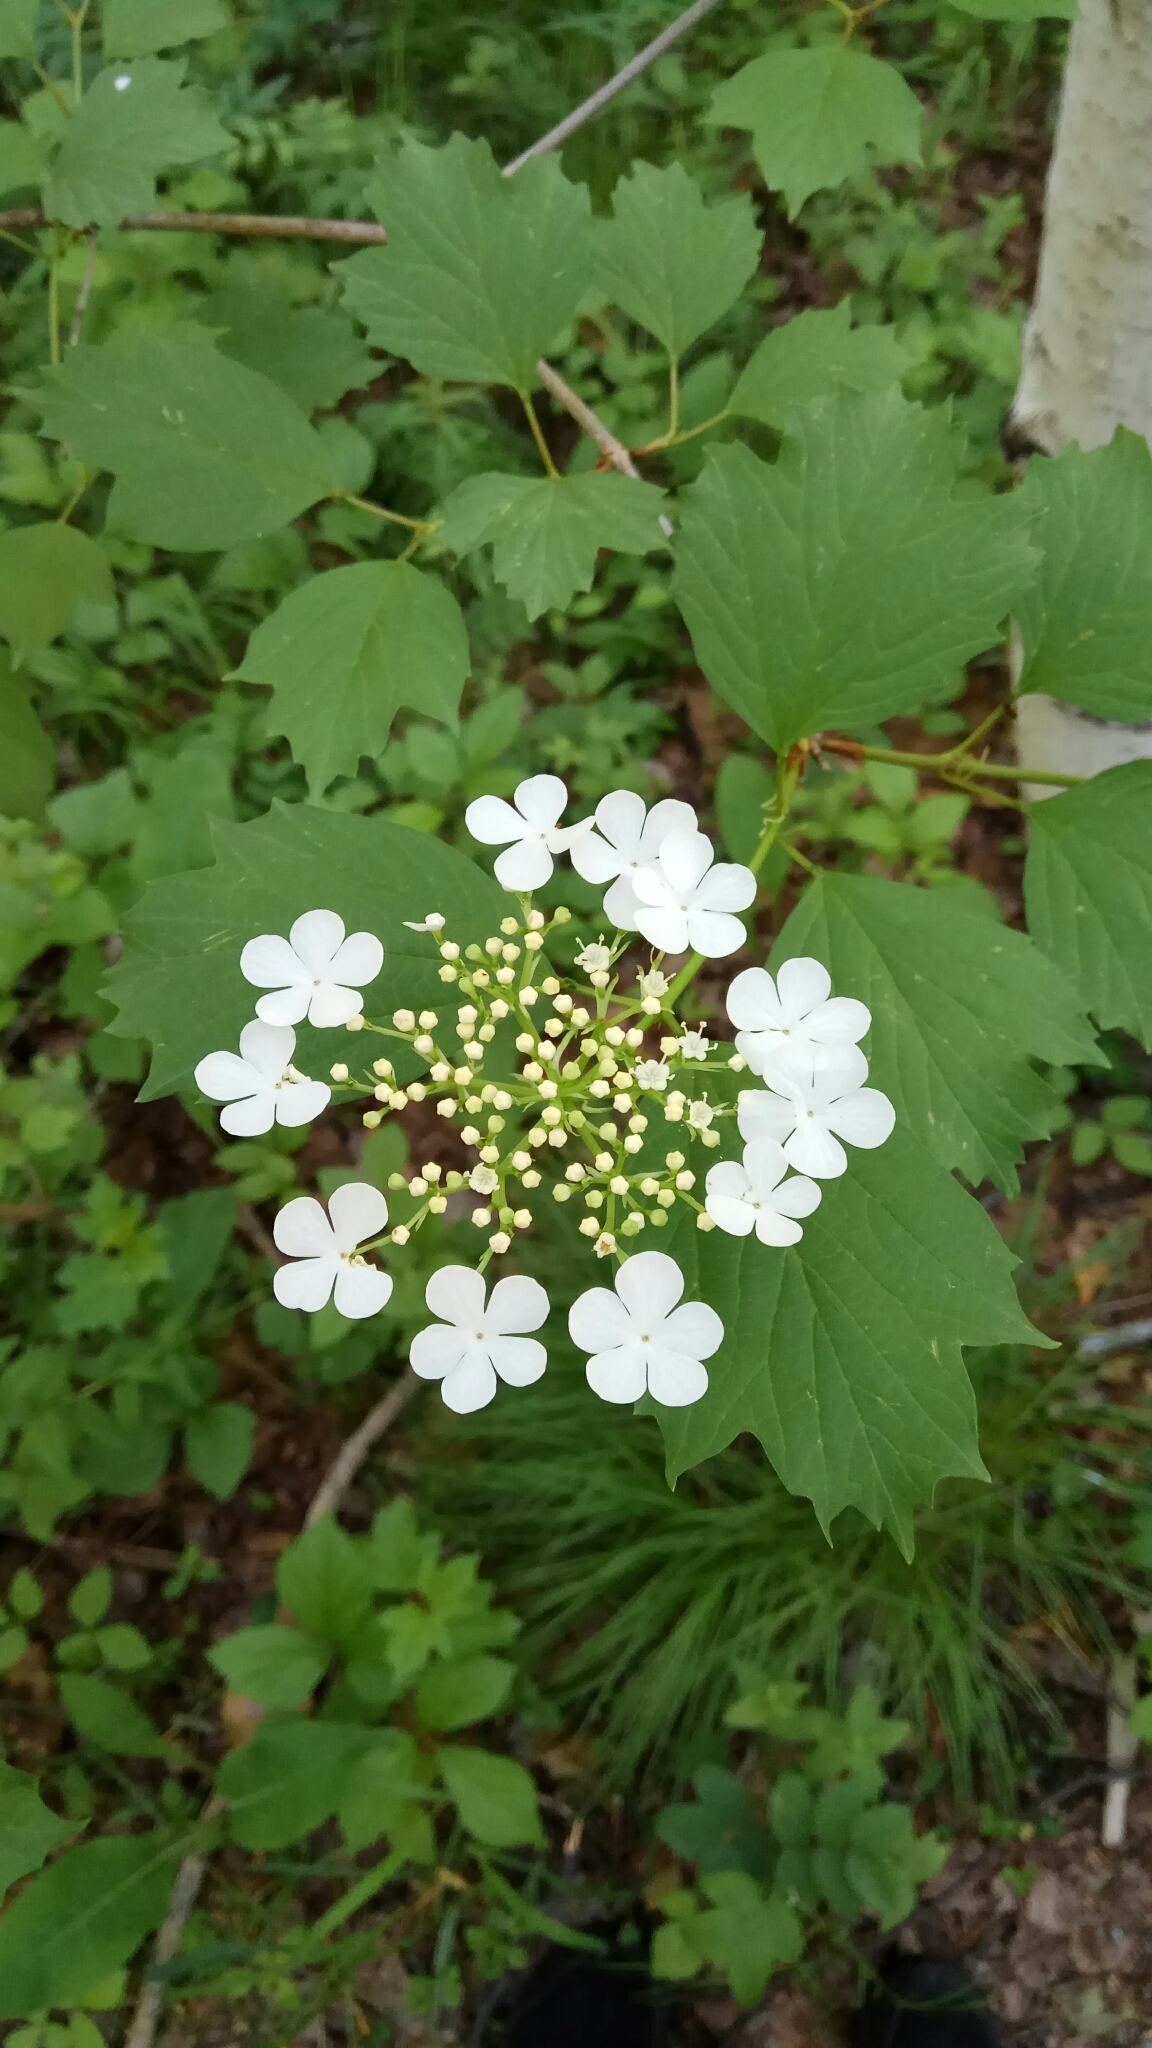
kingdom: Plantae
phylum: Tracheophyta
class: Magnoliopsida
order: Dipsacales
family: Viburnaceae
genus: Viburnum
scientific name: Viburnum opulus
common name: Guelder-rose
